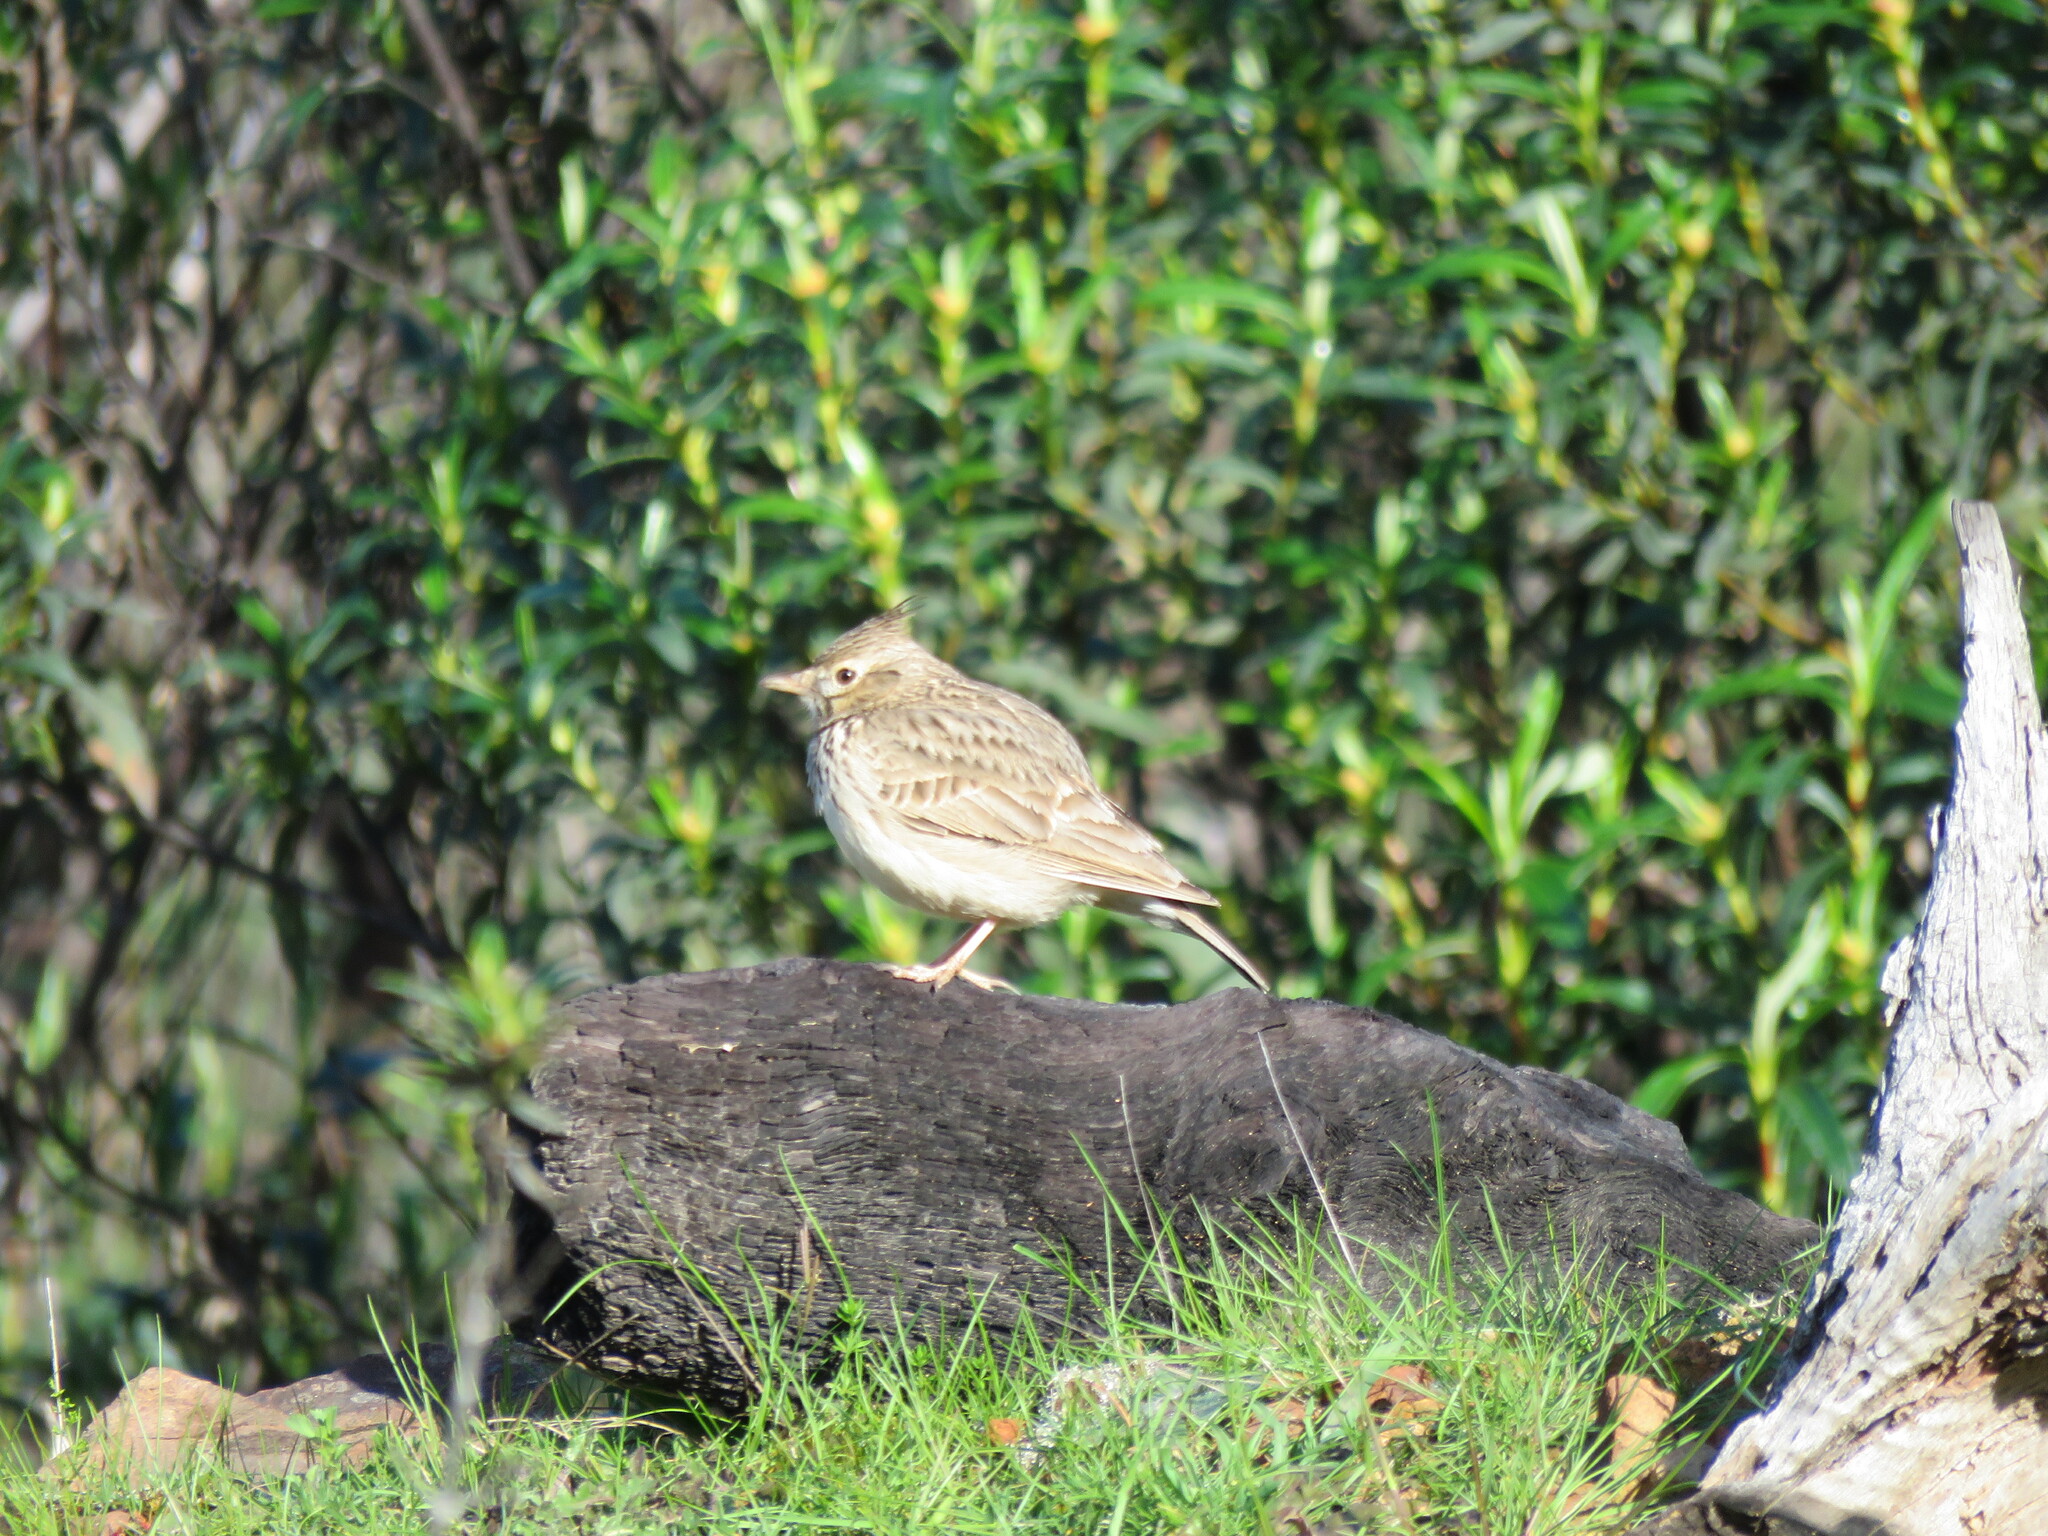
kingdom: Animalia
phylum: Chordata
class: Aves
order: Passeriformes
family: Alaudidae
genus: Galerida
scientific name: Galerida theklae
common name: Thekla lark
